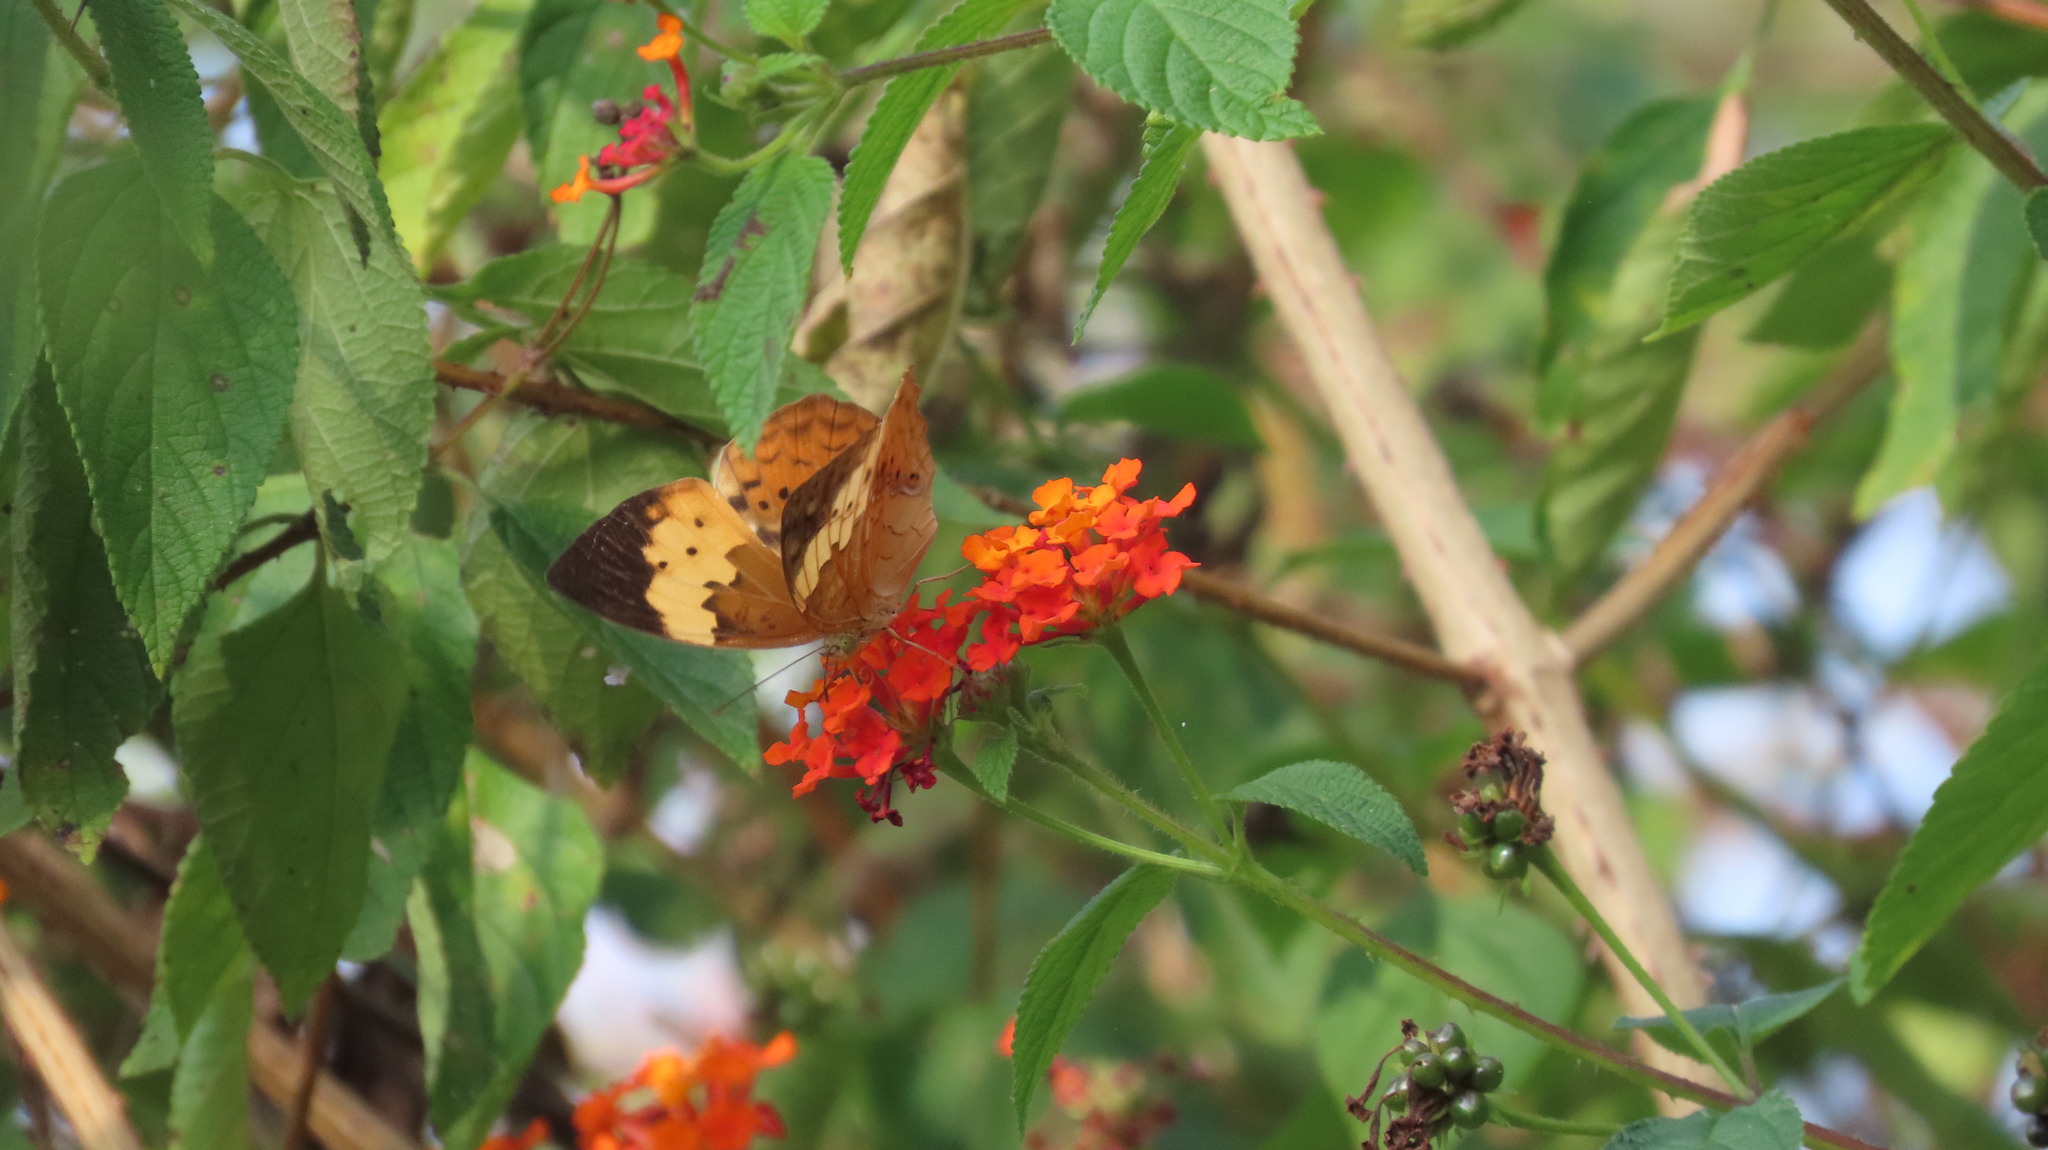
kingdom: Animalia
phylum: Arthropoda
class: Insecta
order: Lepidoptera
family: Nymphalidae
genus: Cupha
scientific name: Cupha erymanthis
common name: Rustic
